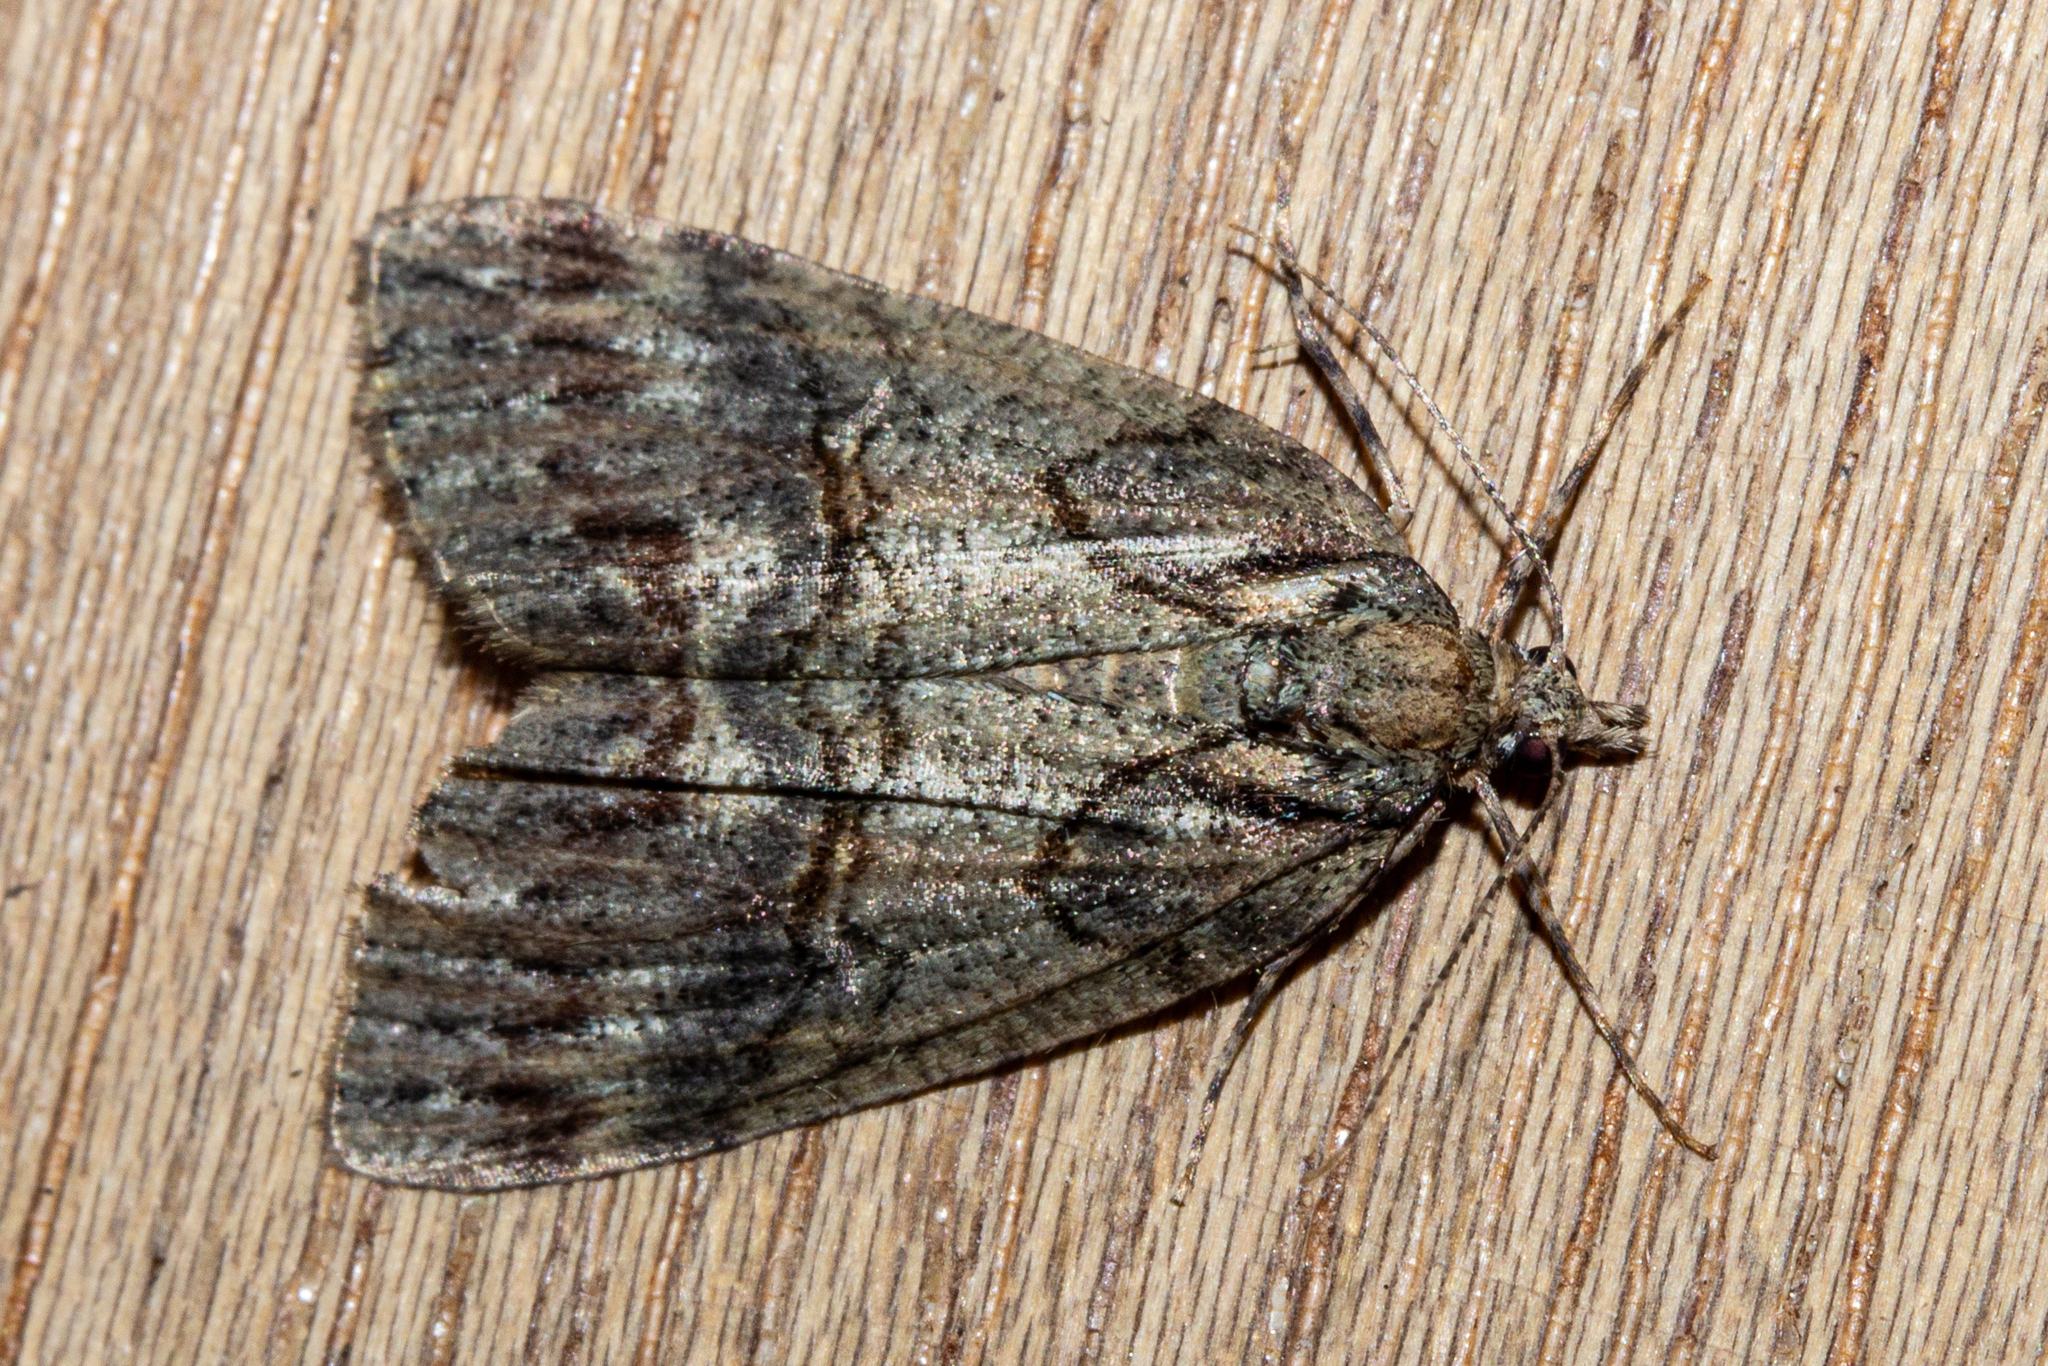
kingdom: Animalia
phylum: Arthropoda
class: Insecta
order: Lepidoptera
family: Geometridae
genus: Chalastra
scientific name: Chalastra ochrea
